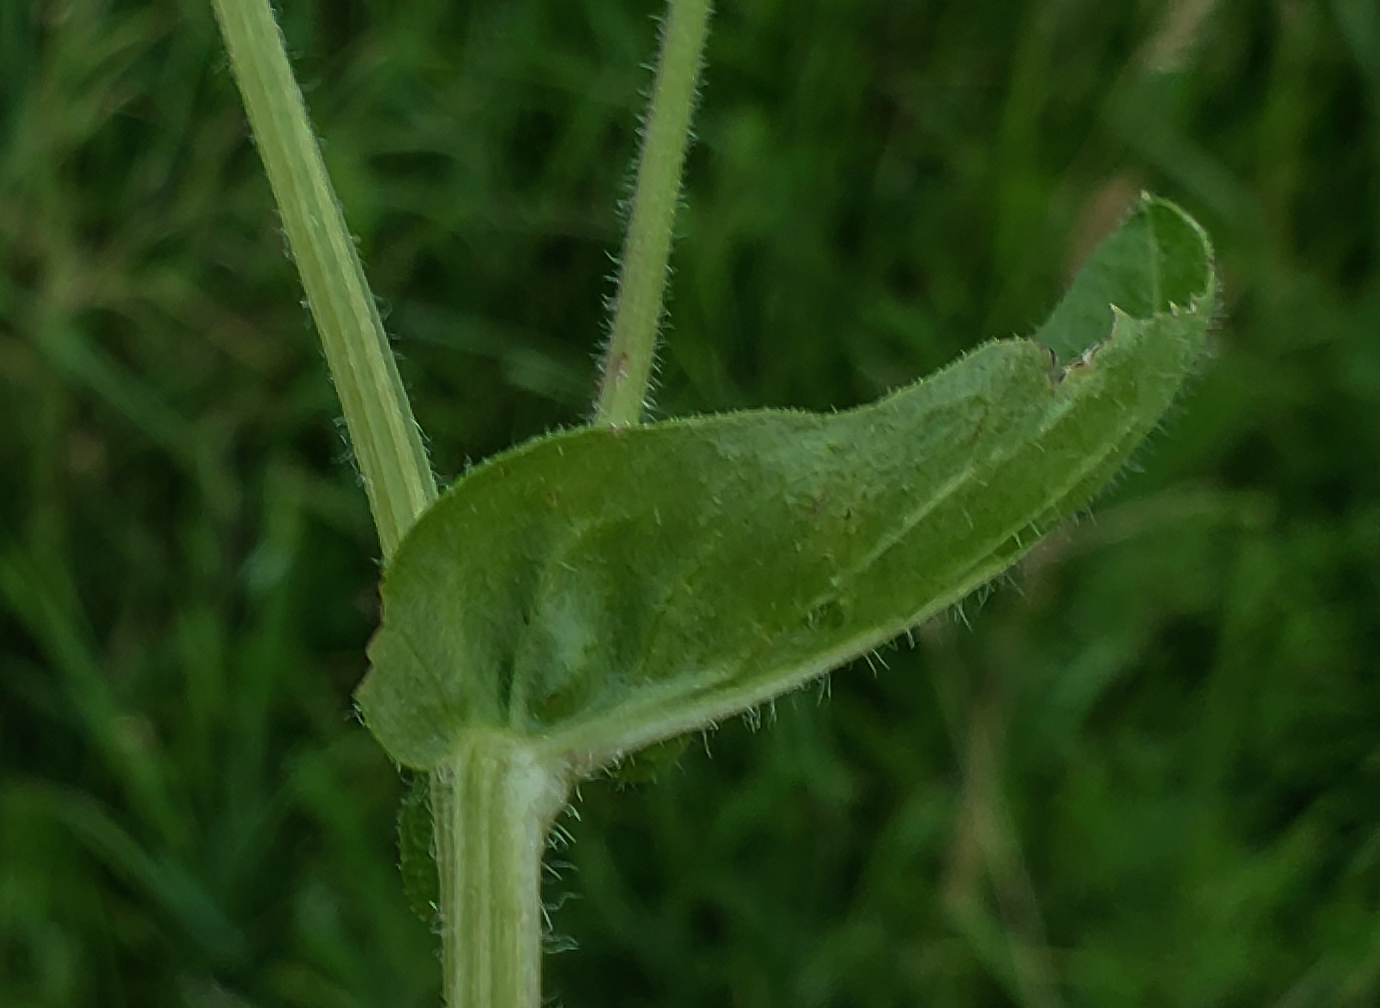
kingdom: Plantae
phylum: Tracheophyta
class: Magnoliopsida
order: Asterales
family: Asteraceae
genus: Erigeron
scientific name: Erigeron philadelphicus
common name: Robin's-plantain
